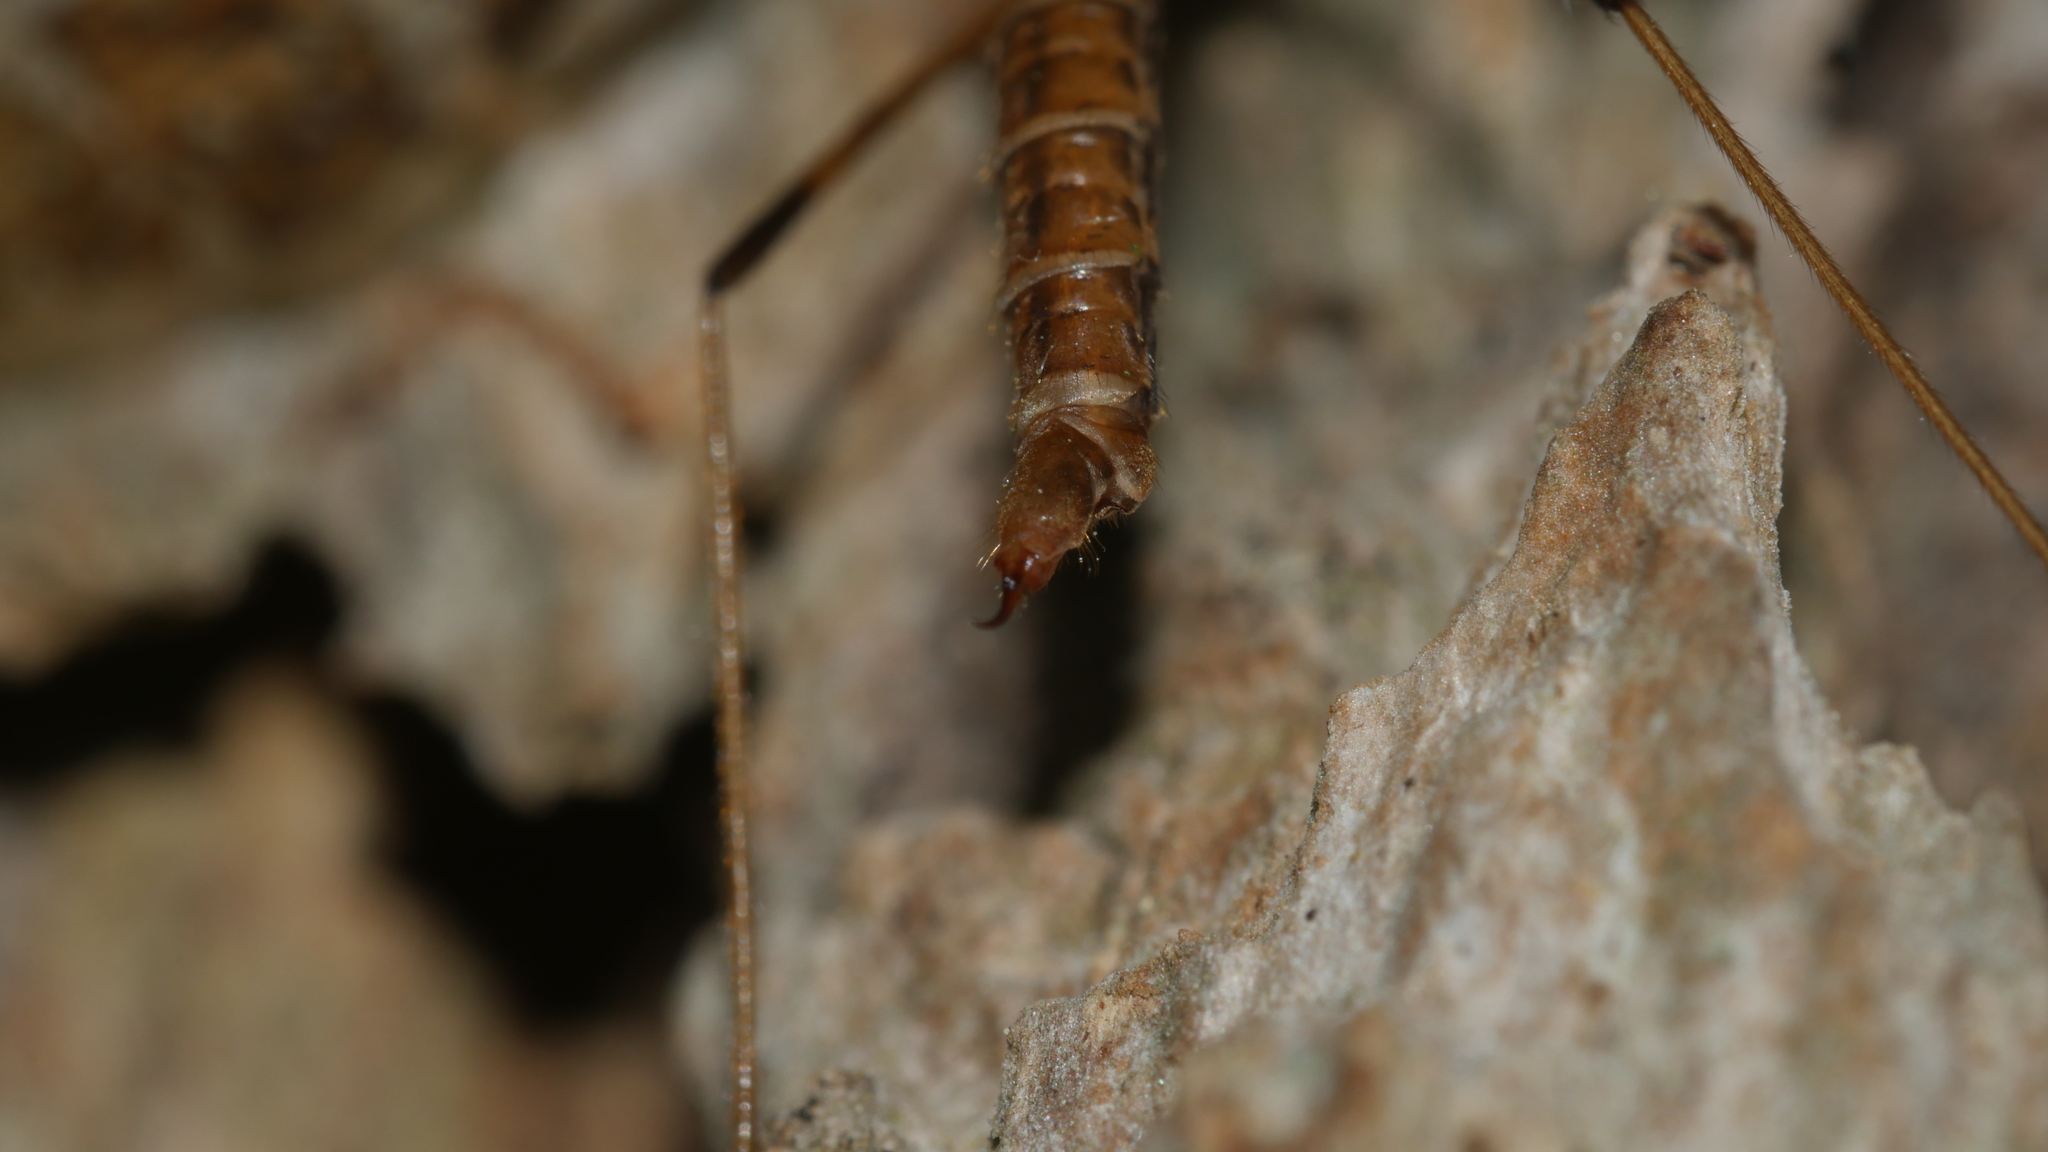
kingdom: Animalia
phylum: Arthropoda
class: Insecta
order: Diptera
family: Limoniidae
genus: Epiphragma
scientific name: Epiphragma fasciapenne
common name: Band-winged crane fly
